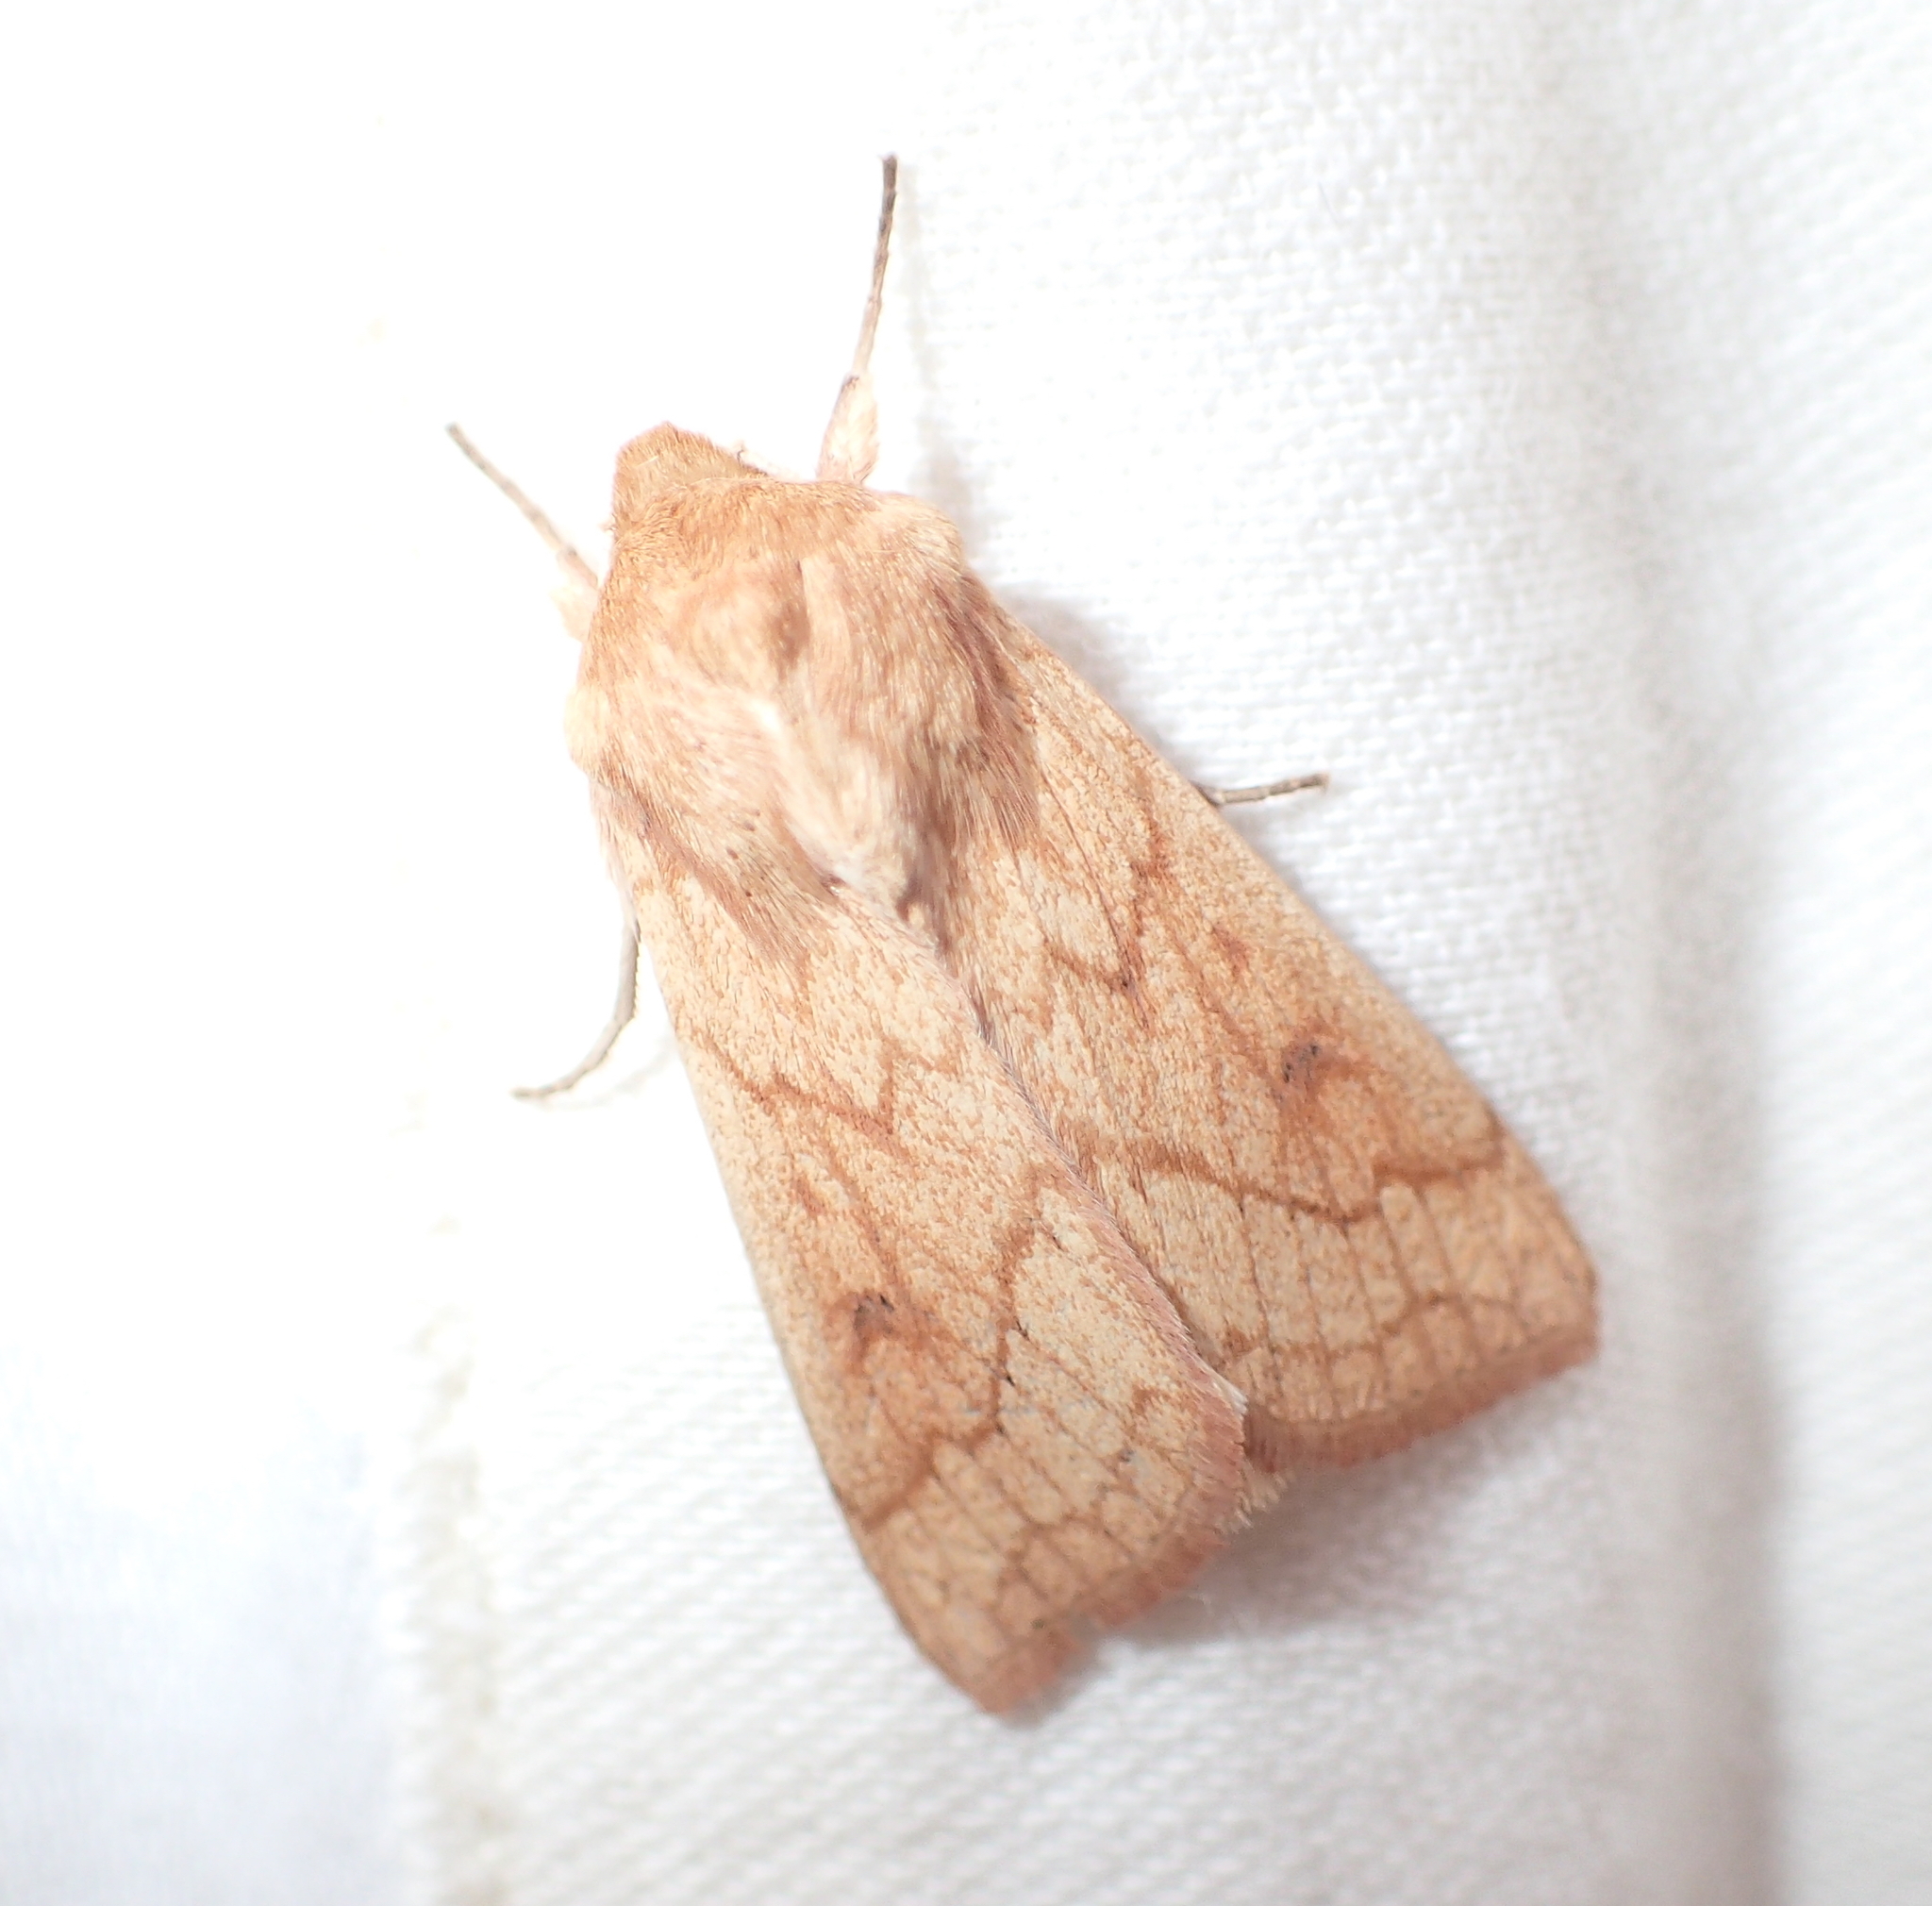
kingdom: Animalia
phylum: Arthropoda
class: Insecta
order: Lepidoptera
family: Noctuidae
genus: Mythimna
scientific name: Mythimna vitellina
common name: Delicate
